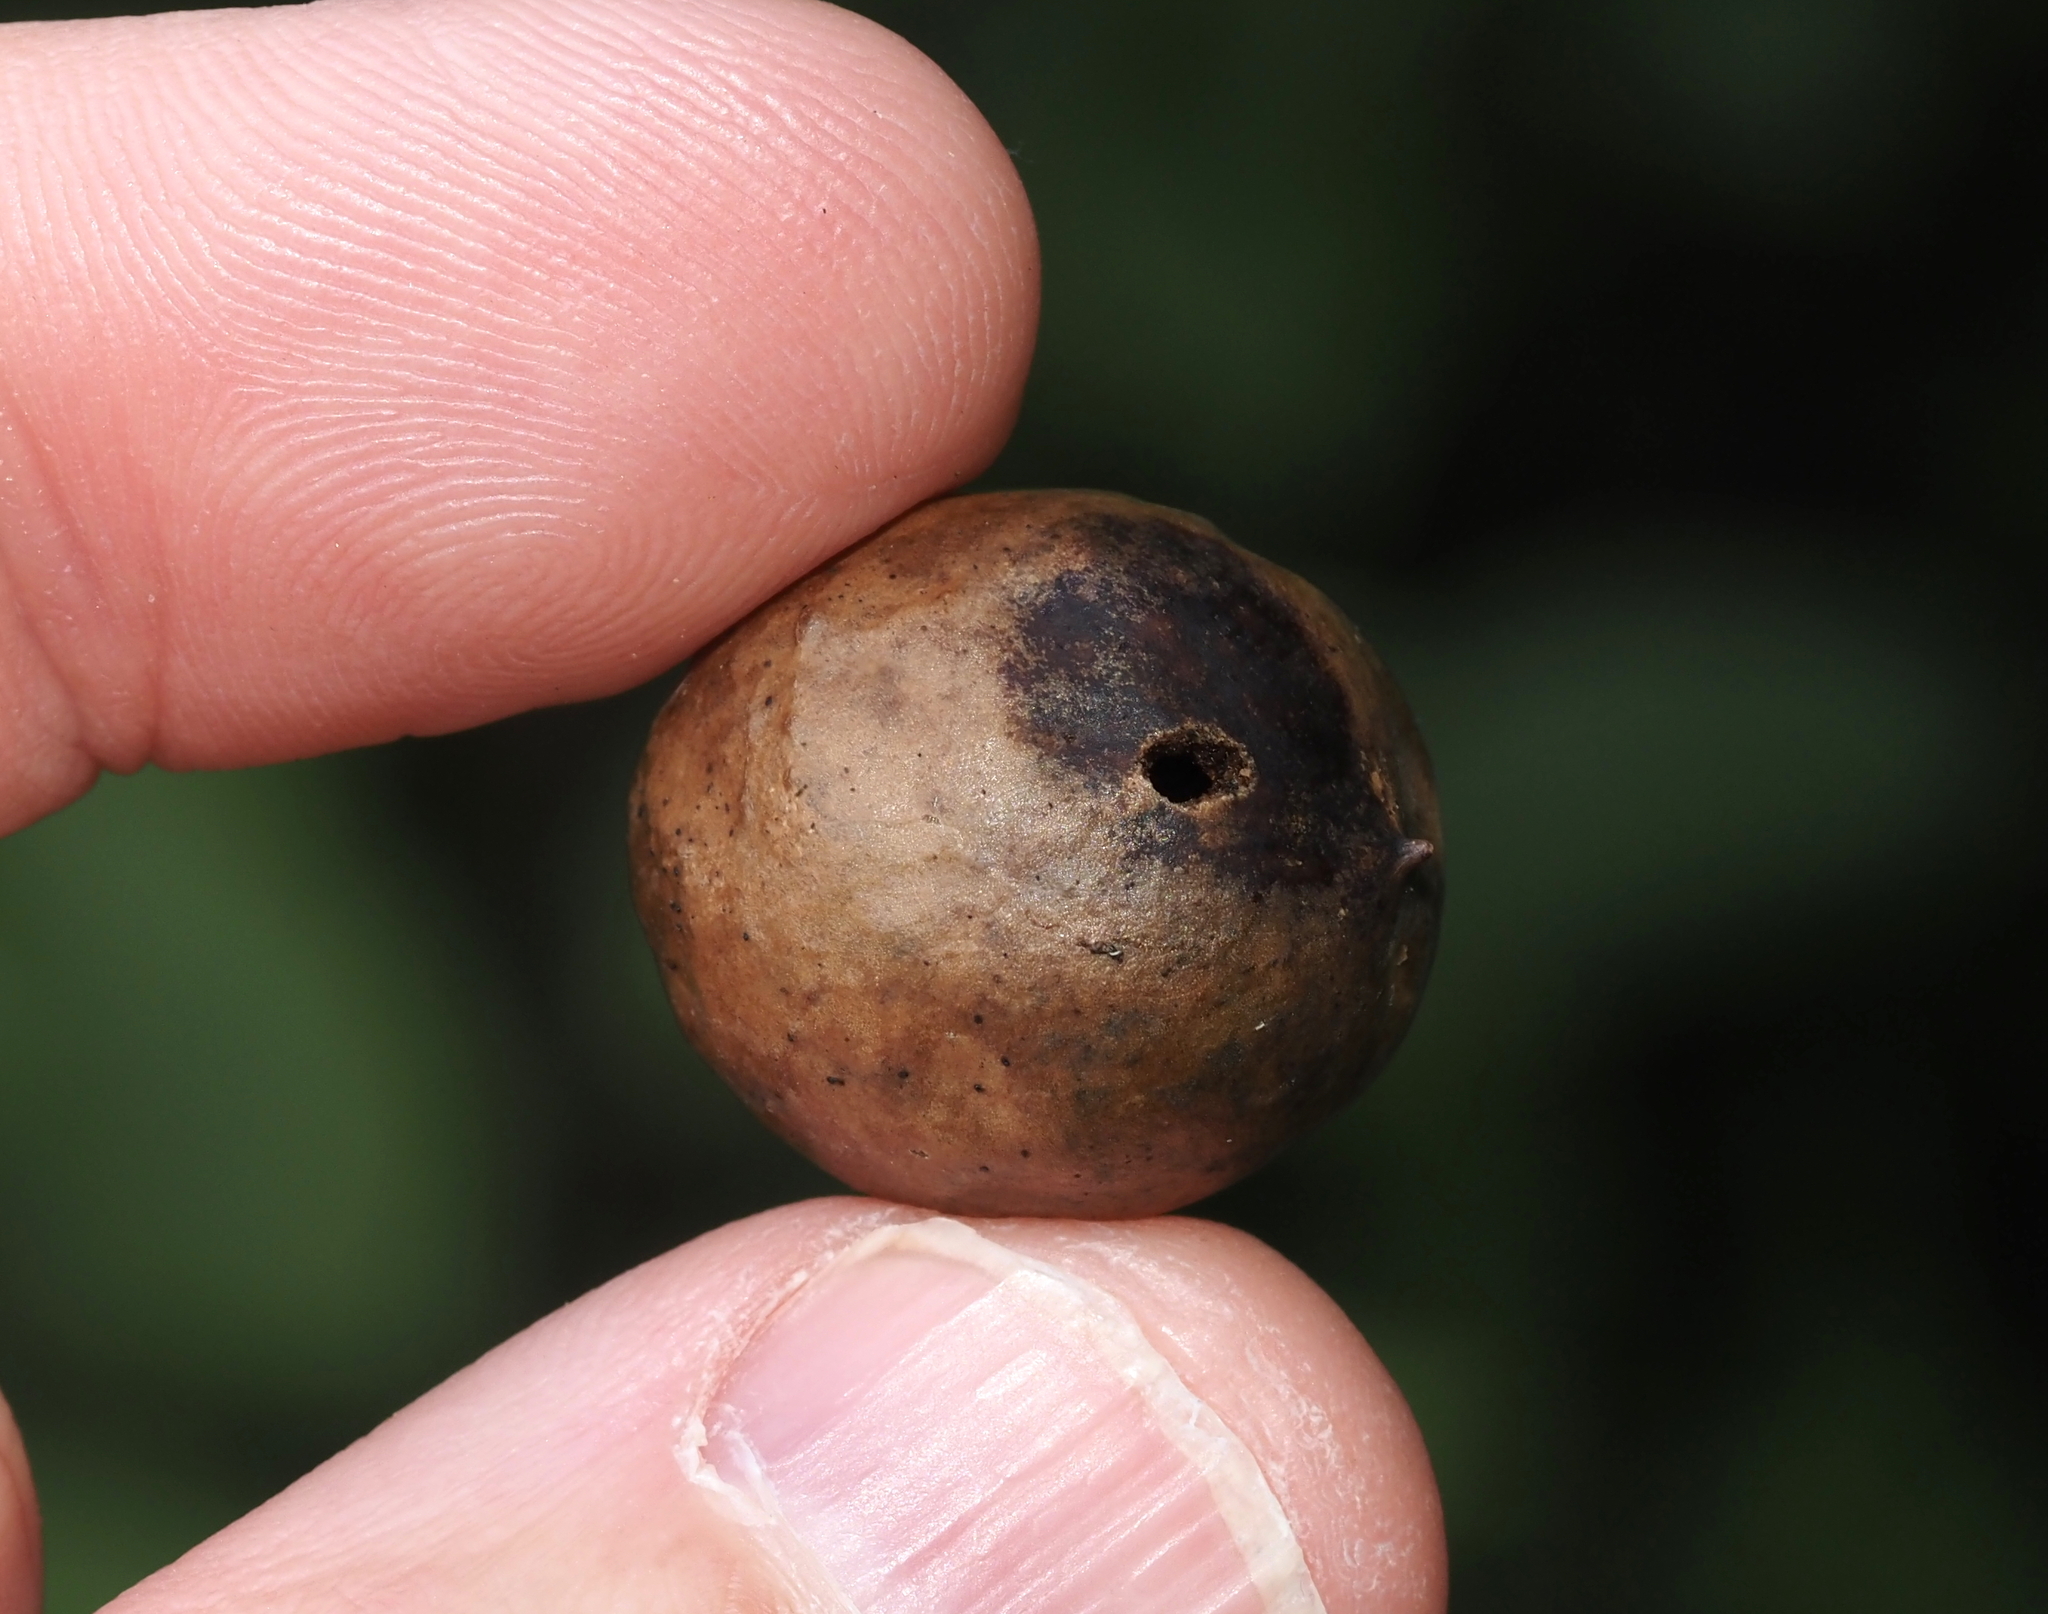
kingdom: Animalia
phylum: Arthropoda
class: Insecta
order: Hymenoptera
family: Cynipidae
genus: Amphibolips
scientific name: Amphibolips
